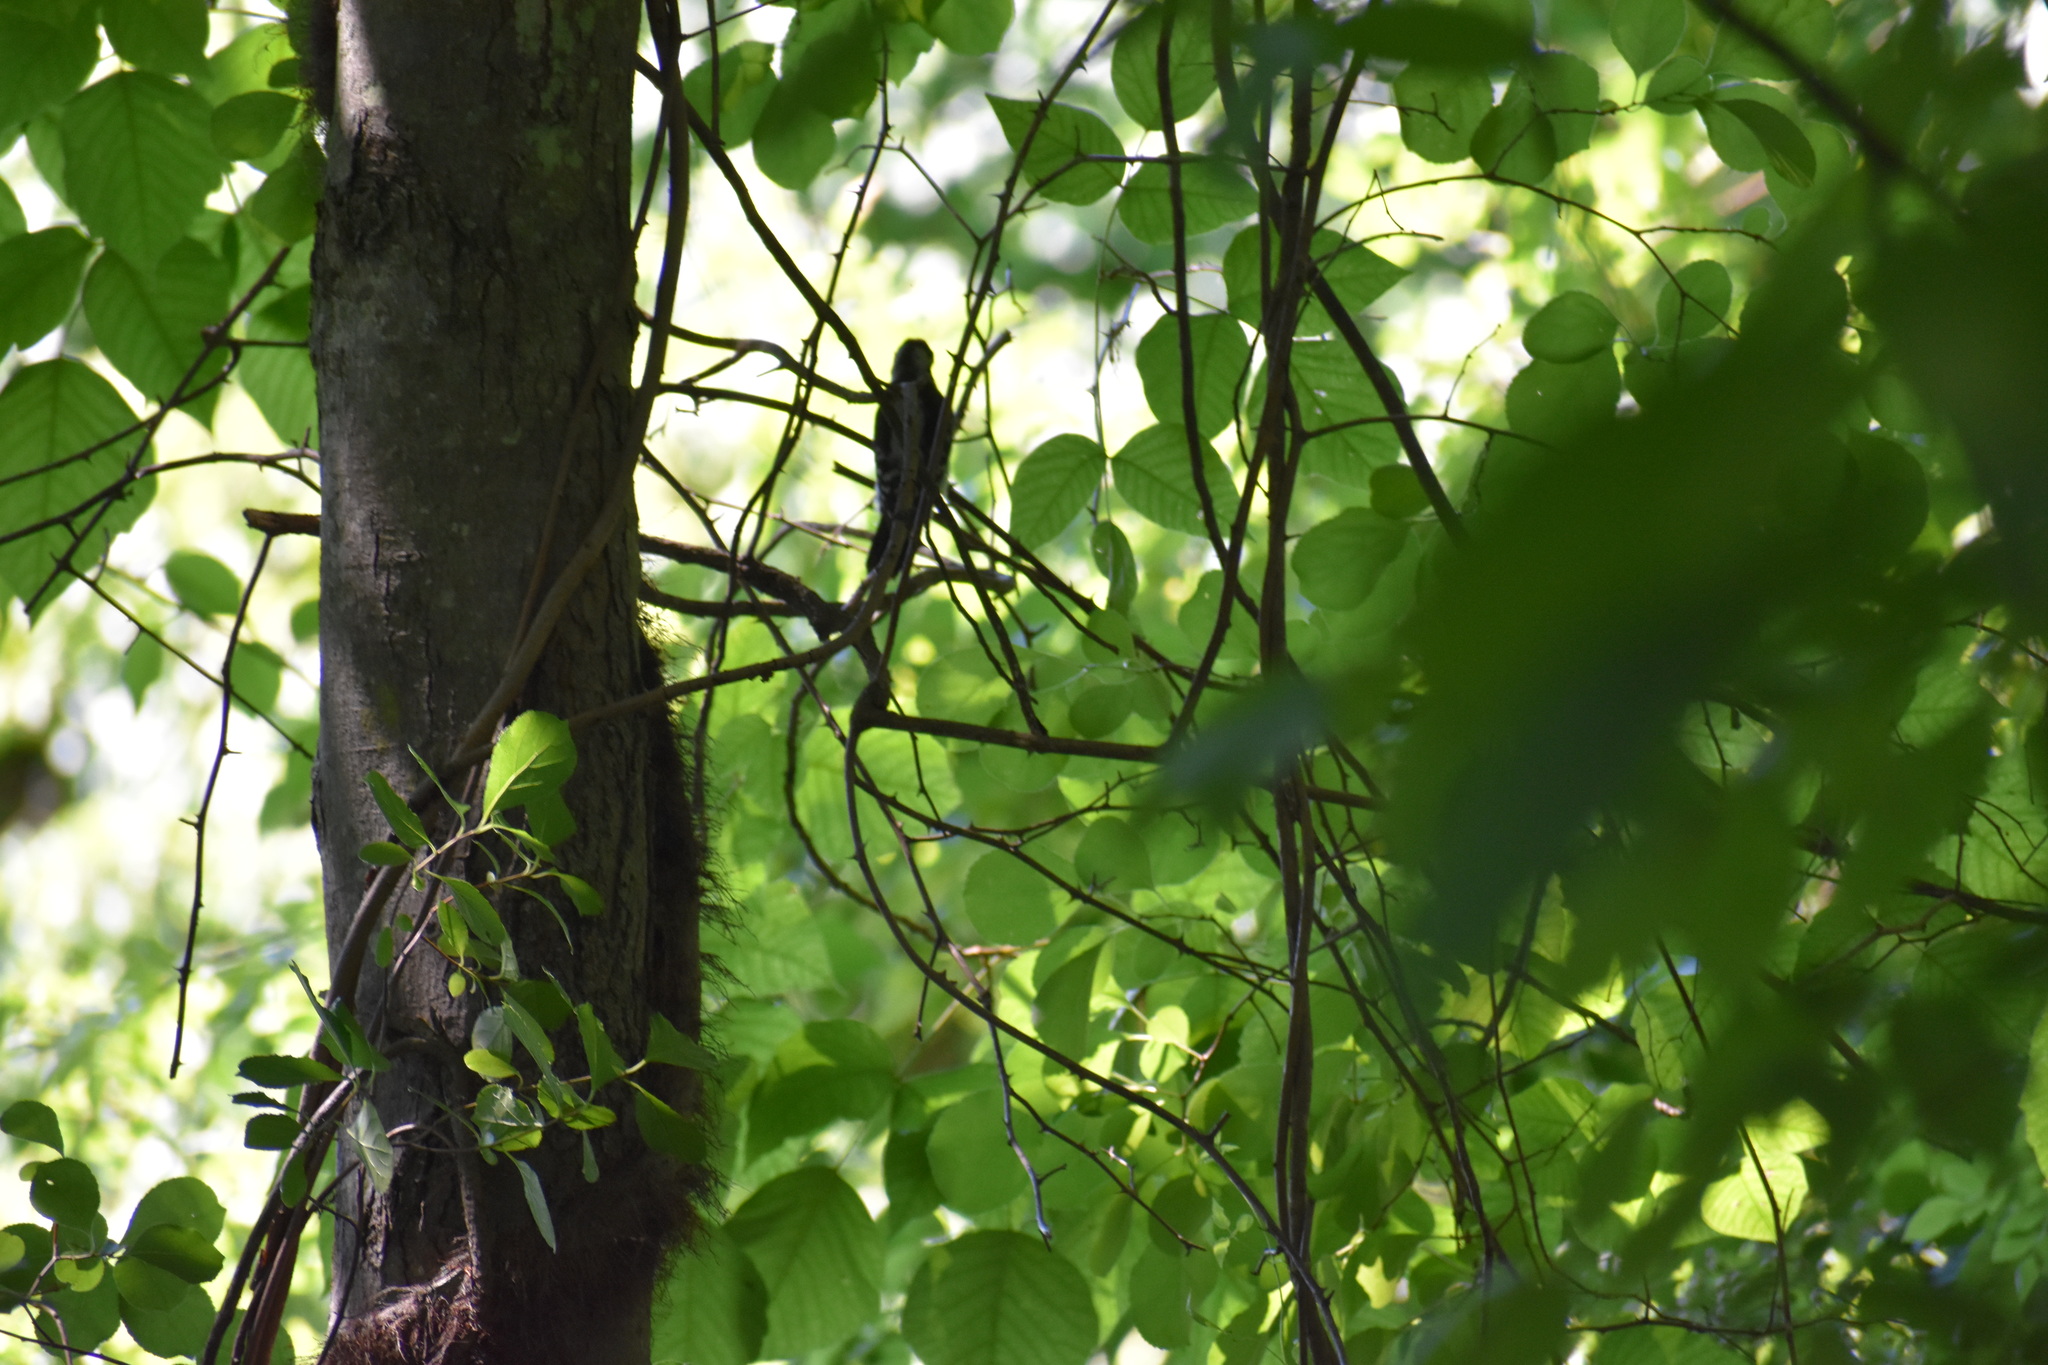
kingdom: Animalia
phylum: Chordata
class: Aves
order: Piciformes
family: Picidae
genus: Dryobates
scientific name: Dryobates pubescens
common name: Downy woodpecker
